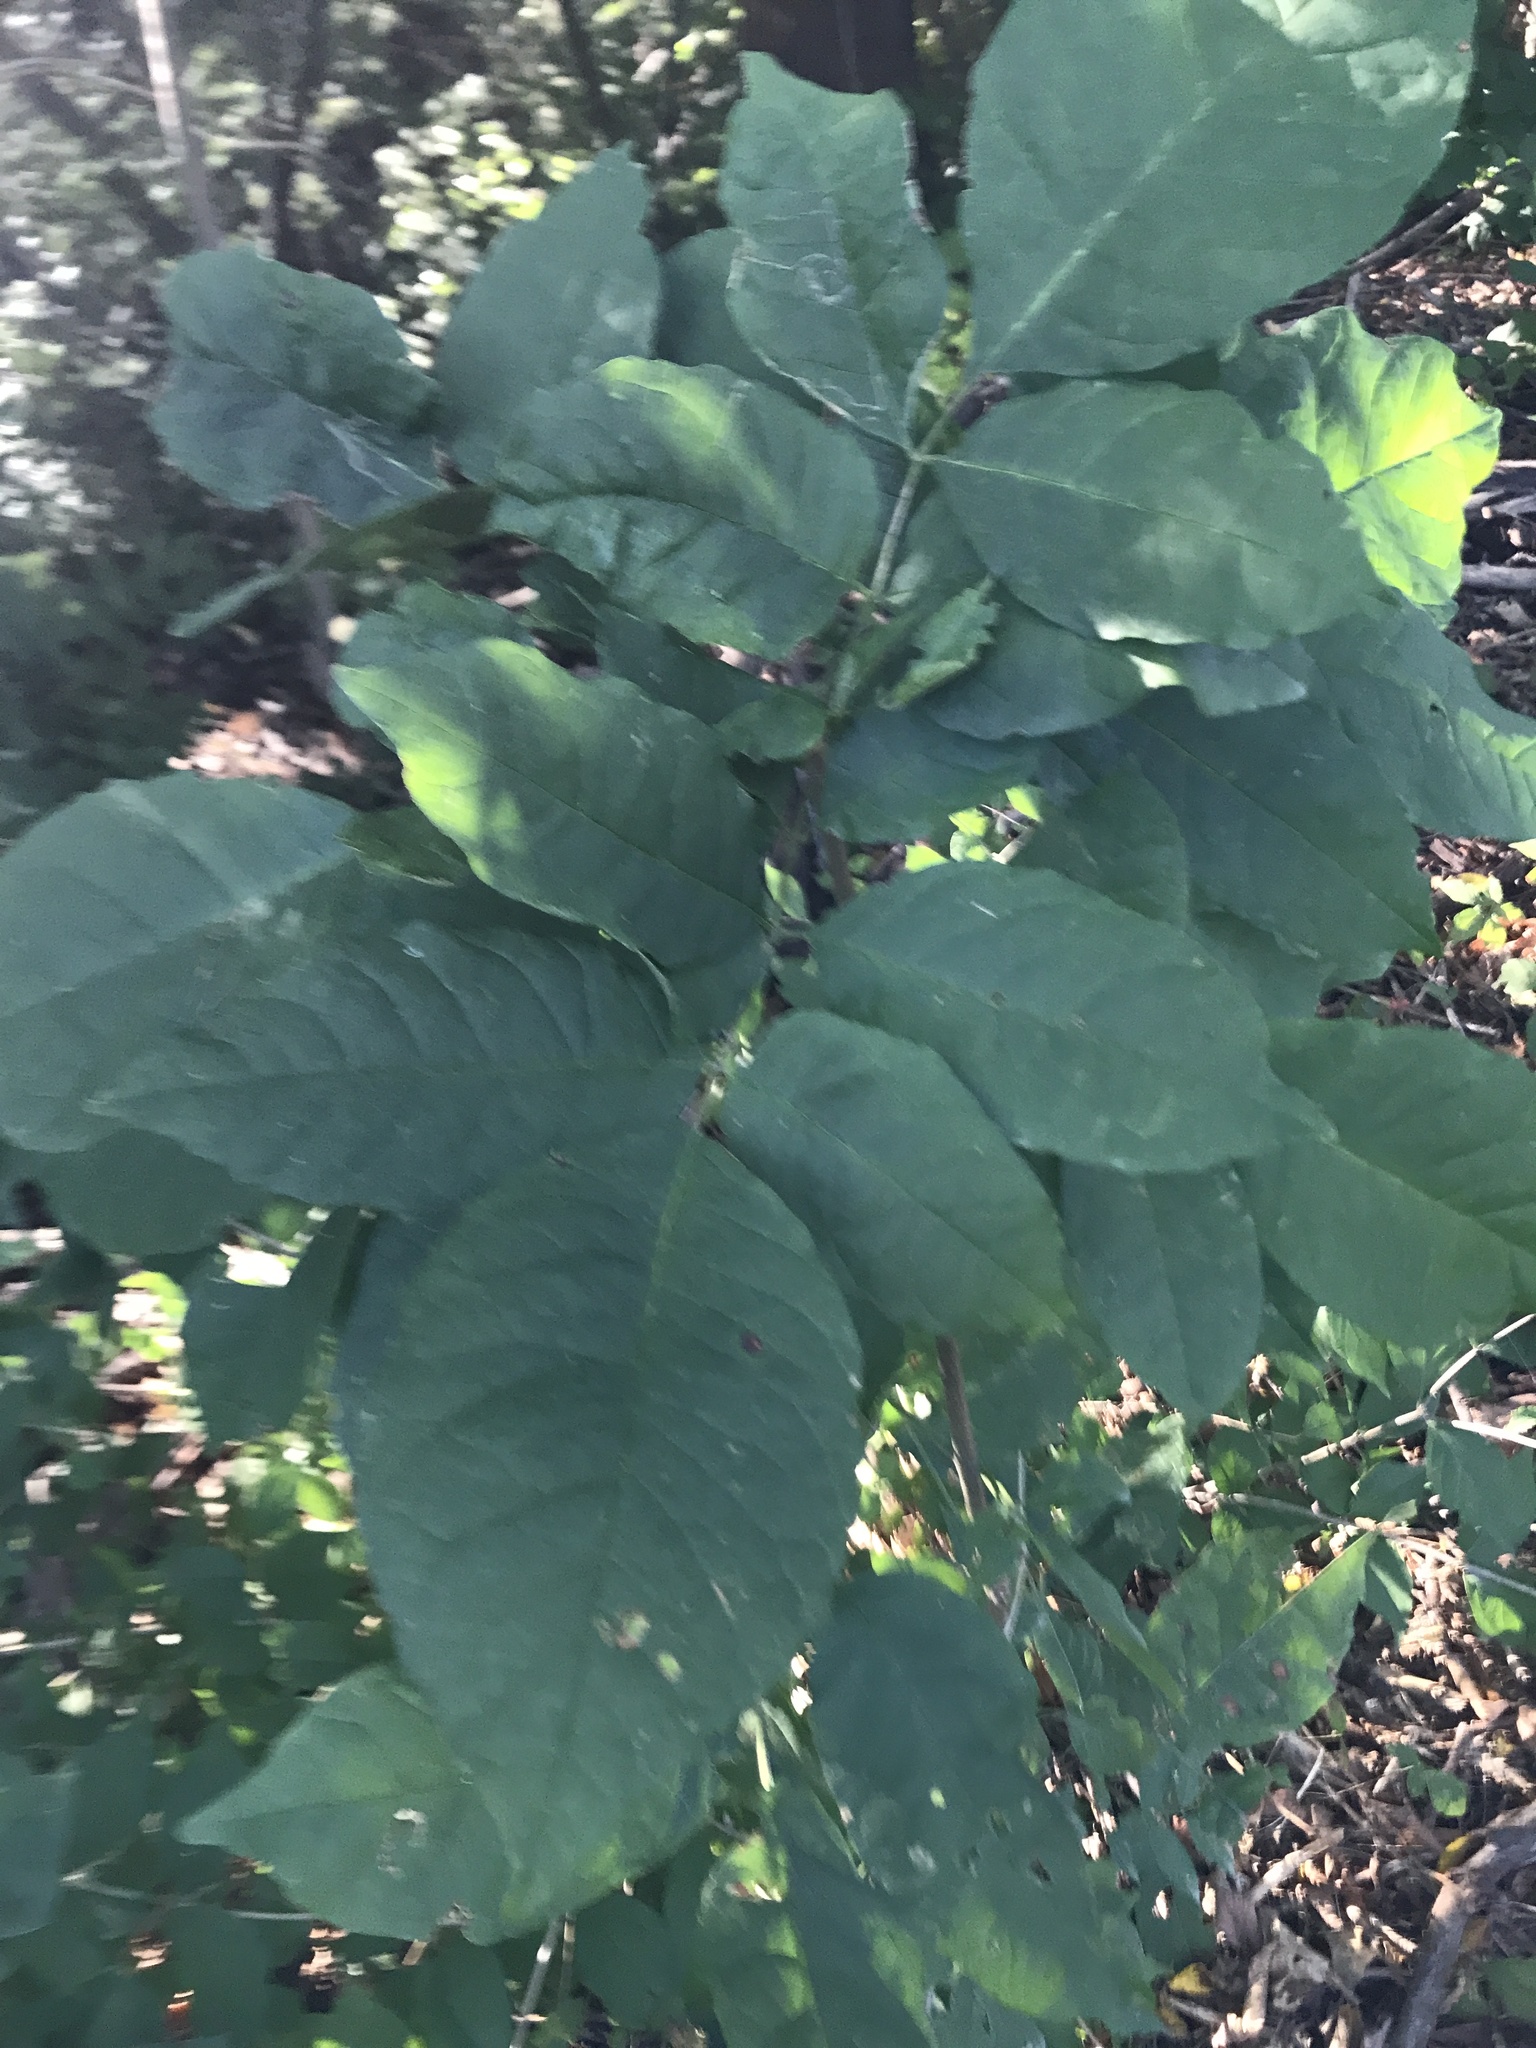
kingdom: Plantae
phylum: Tracheophyta
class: Magnoliopsida
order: Lamiales
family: Oleaceae
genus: Fraxinus
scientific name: Fraxinus americana
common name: White ash
